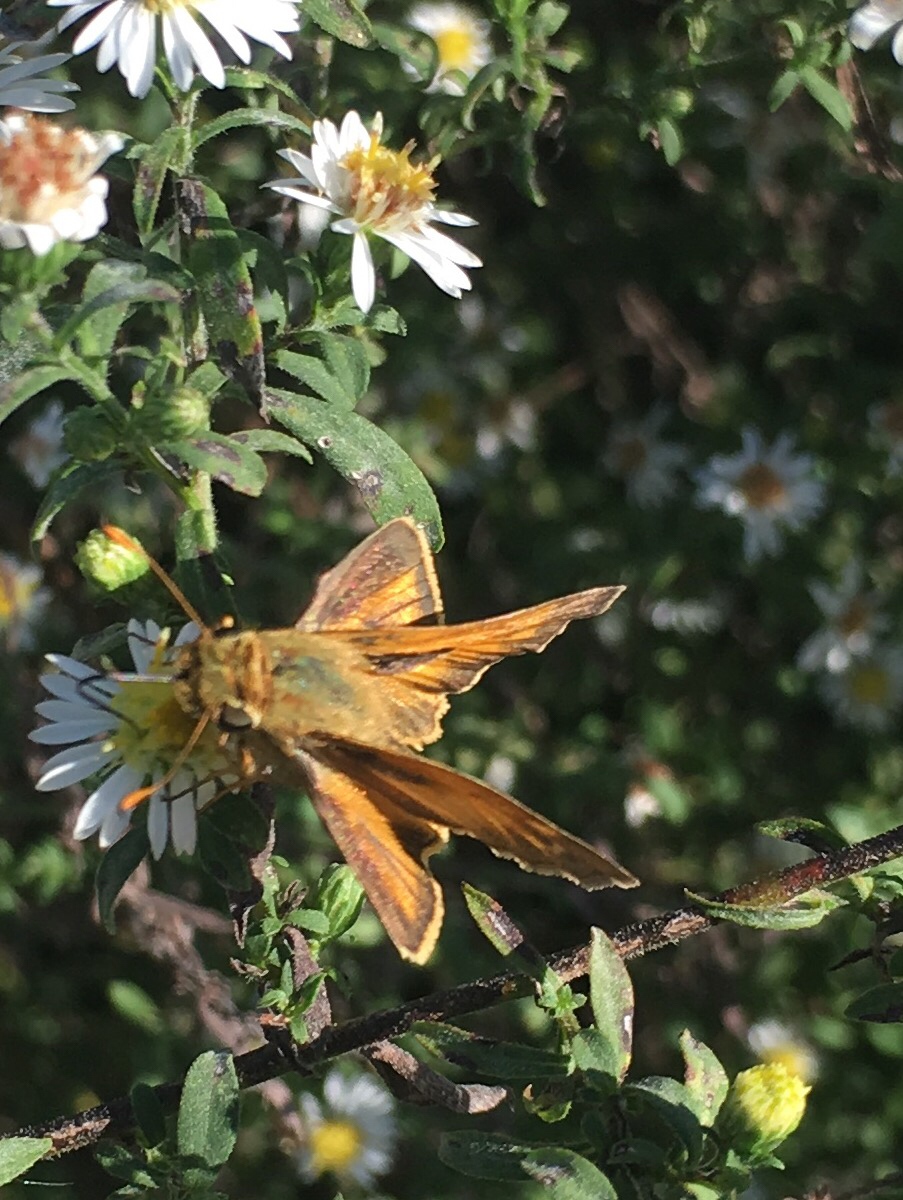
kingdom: Animalia
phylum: Arthropoda
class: Insecta
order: Lepidoptera
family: Hesperiidae
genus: Atalopedes
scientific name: Atalopedes
